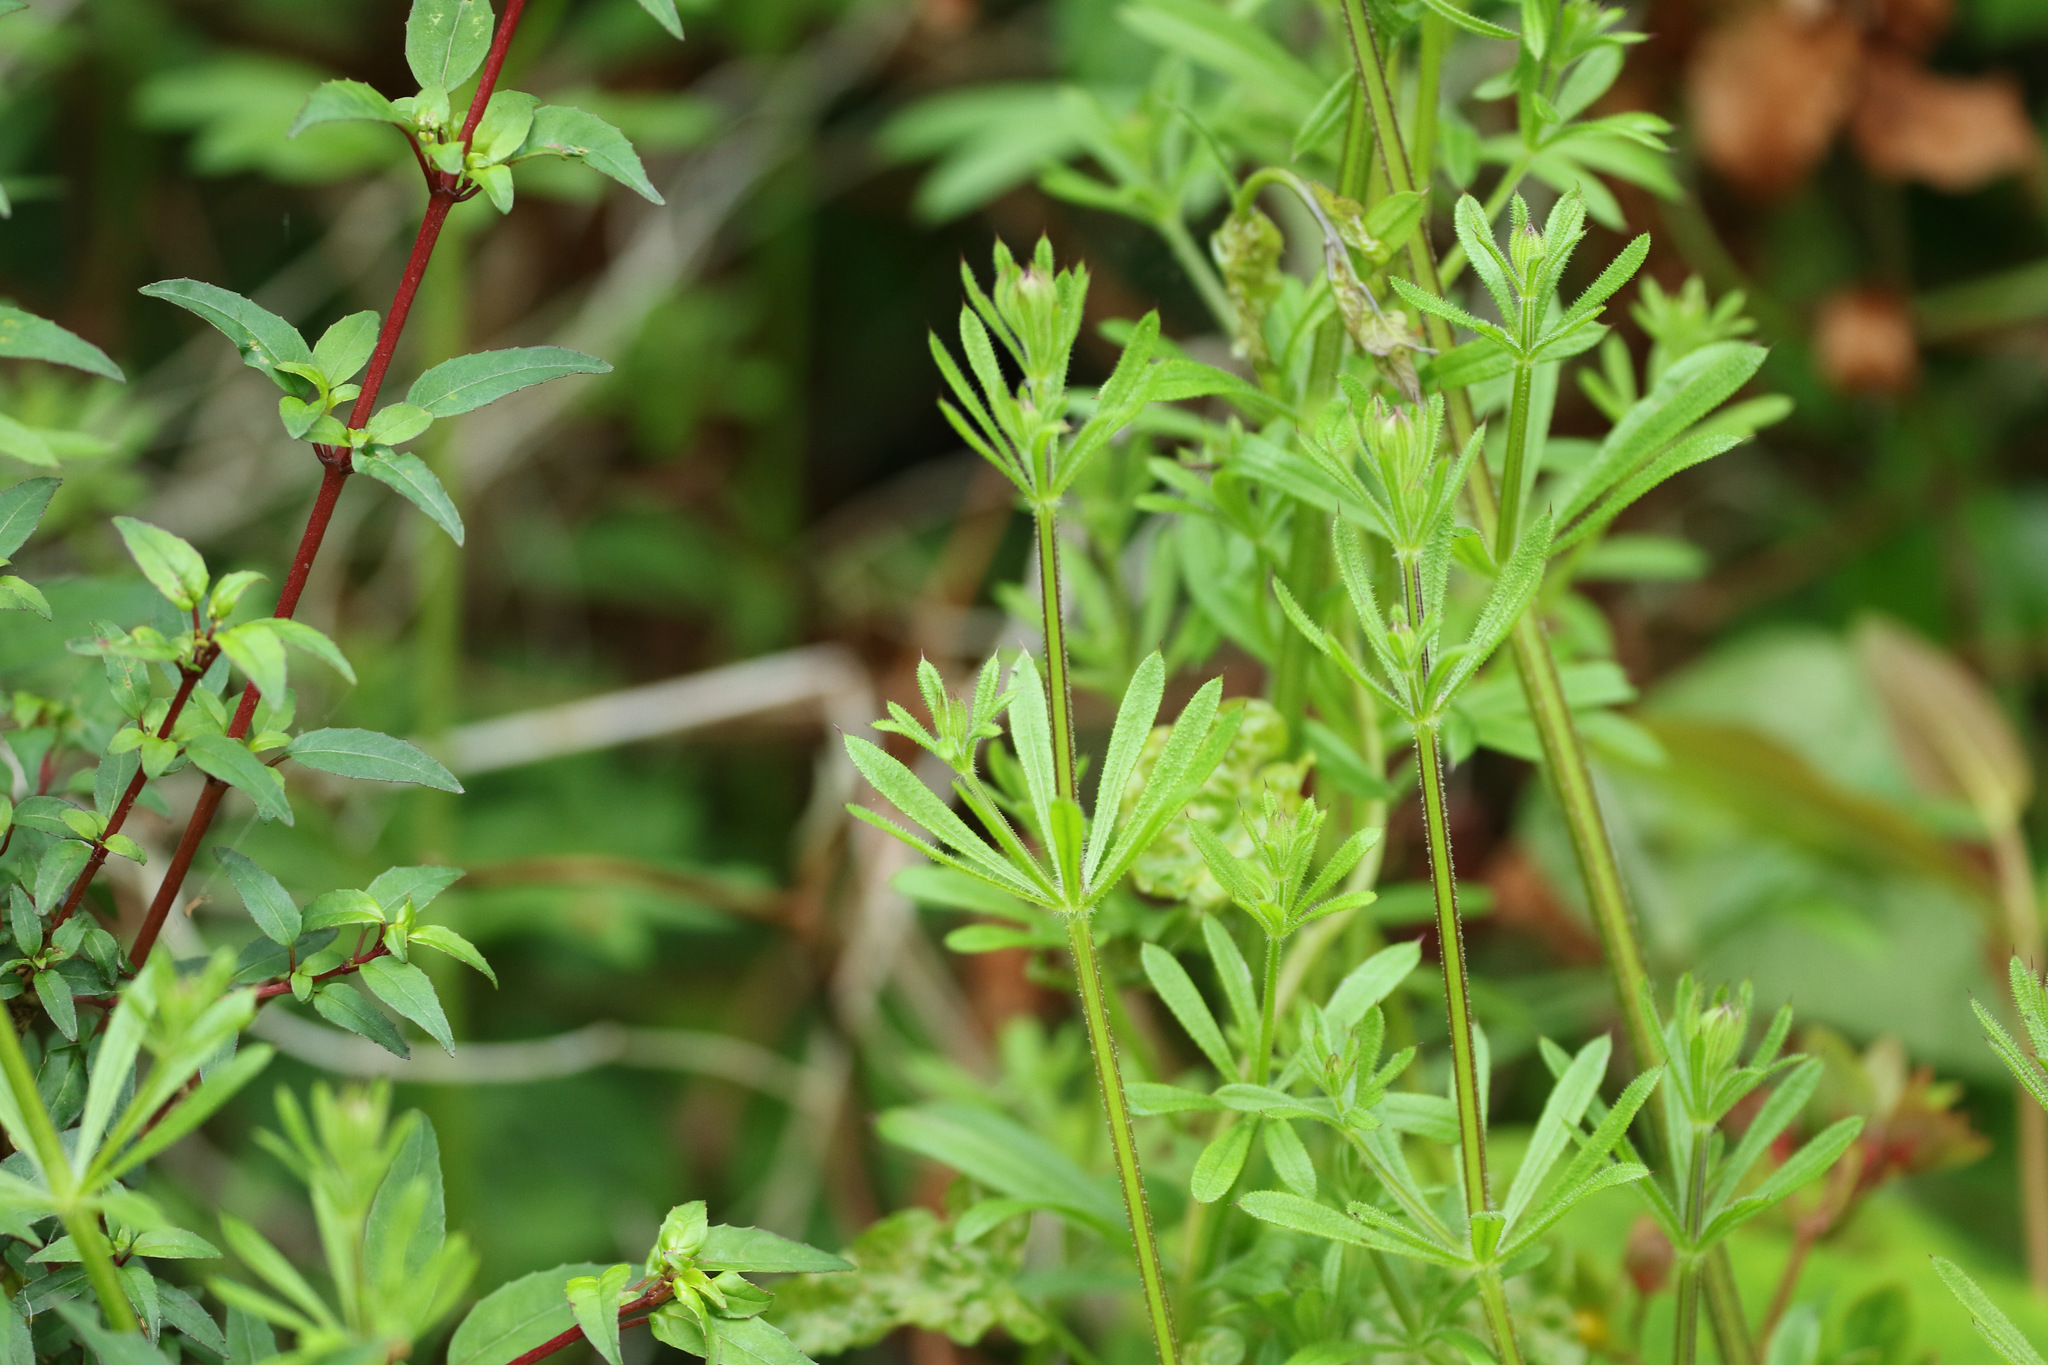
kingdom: Plantae
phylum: Tracheophyta
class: Magnoliopsida
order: Gentianales
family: Rubiaceae
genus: Galium
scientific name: Galium aparine
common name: Cleavers
